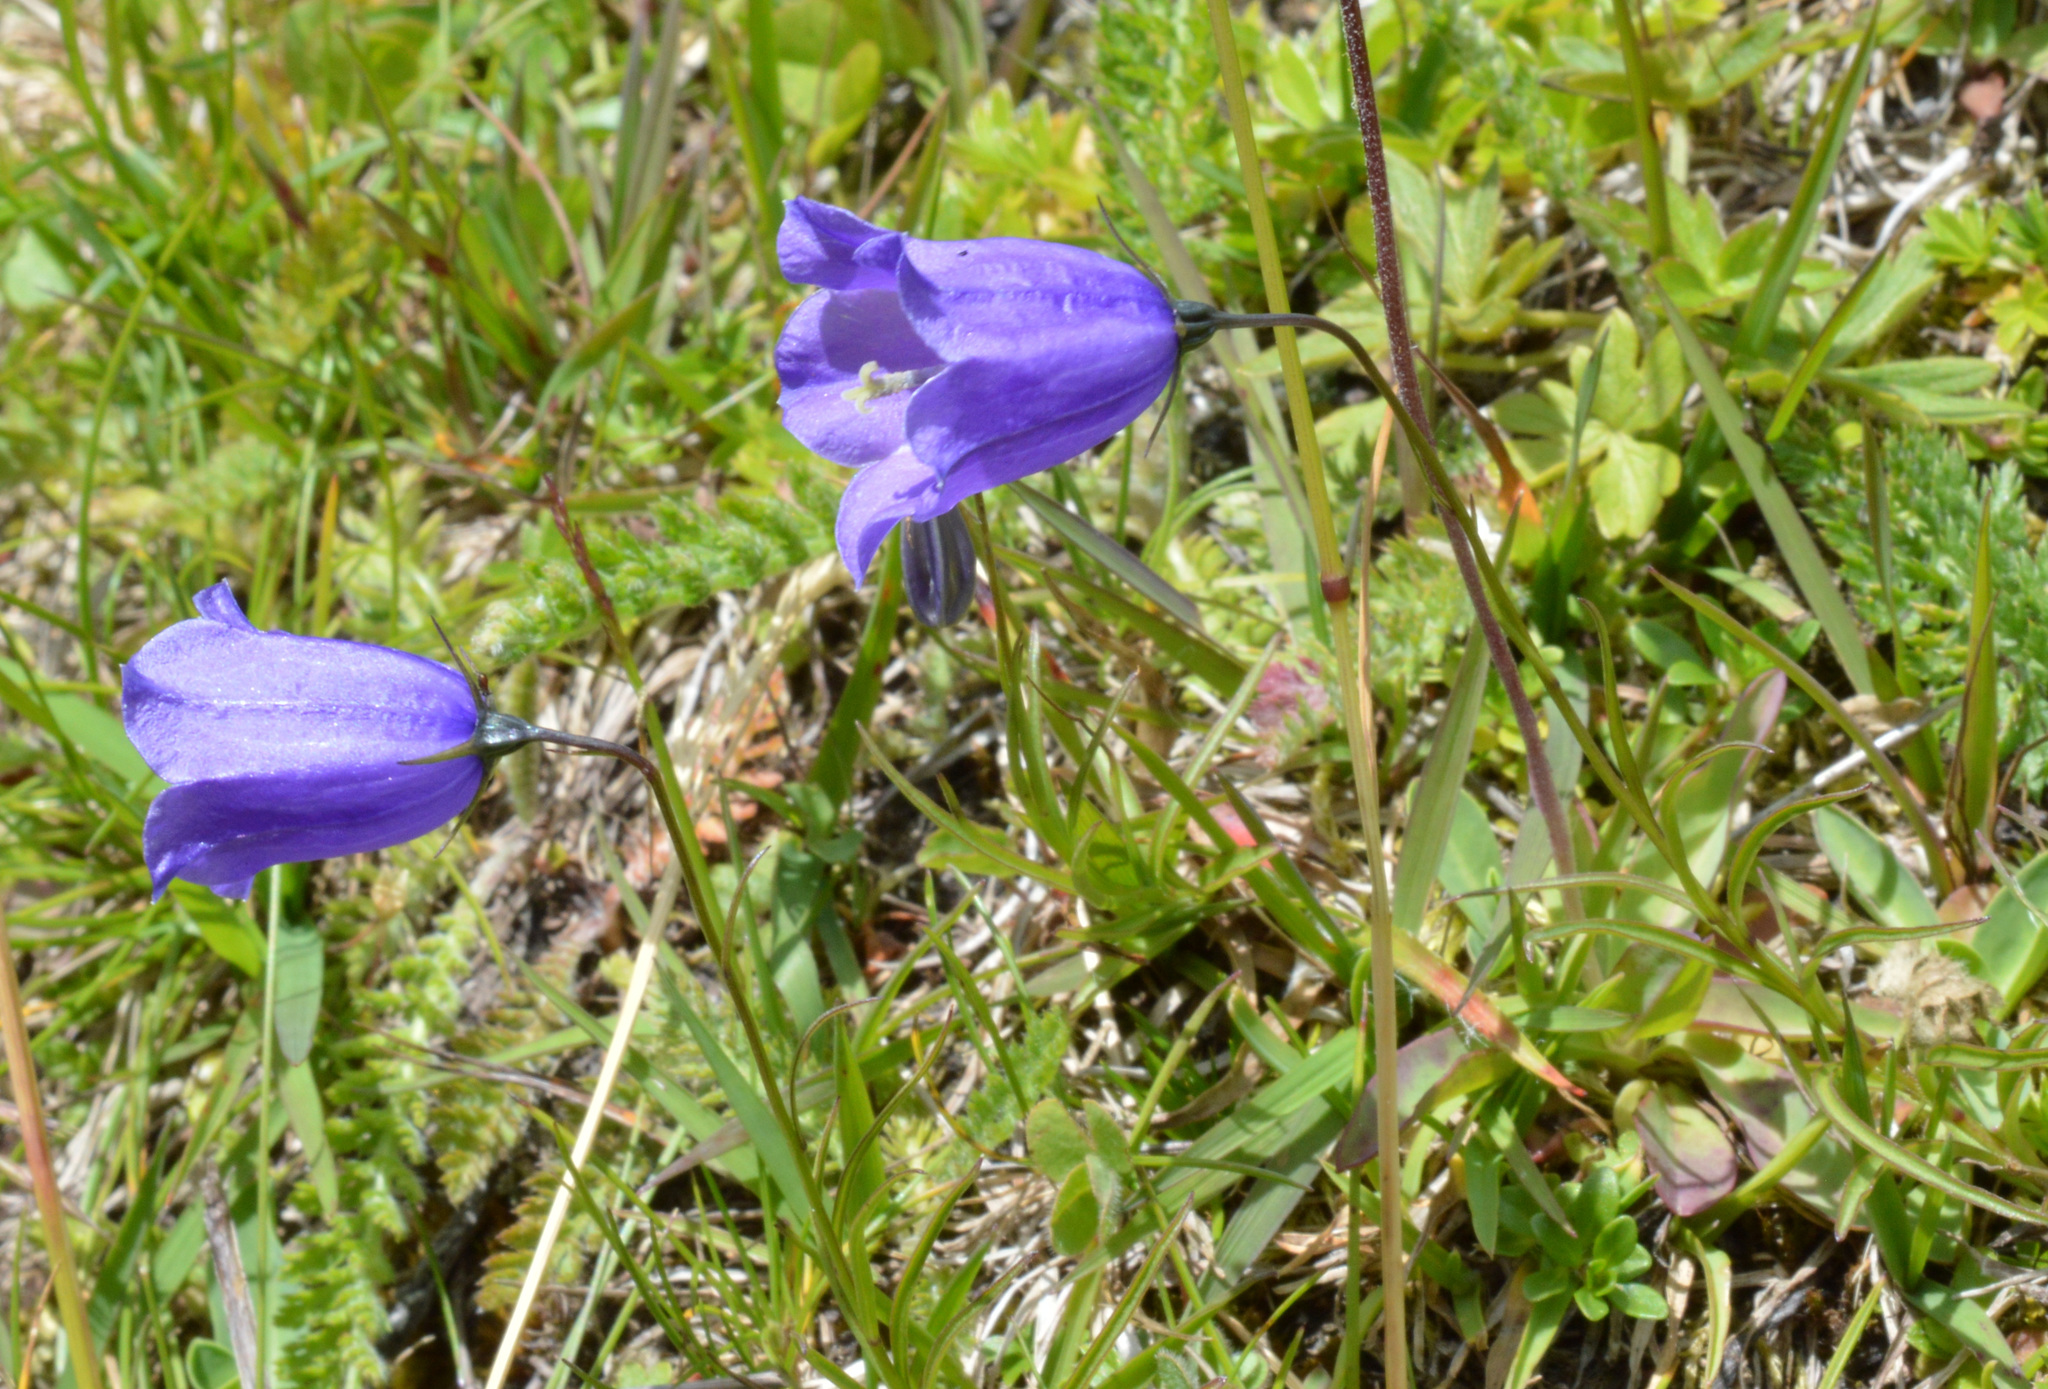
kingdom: Plantae
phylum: Tracheophyta
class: Magnoliopsida
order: Asterales
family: Campanulaceae
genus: Campanula
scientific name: Campanula scheuchzeri
